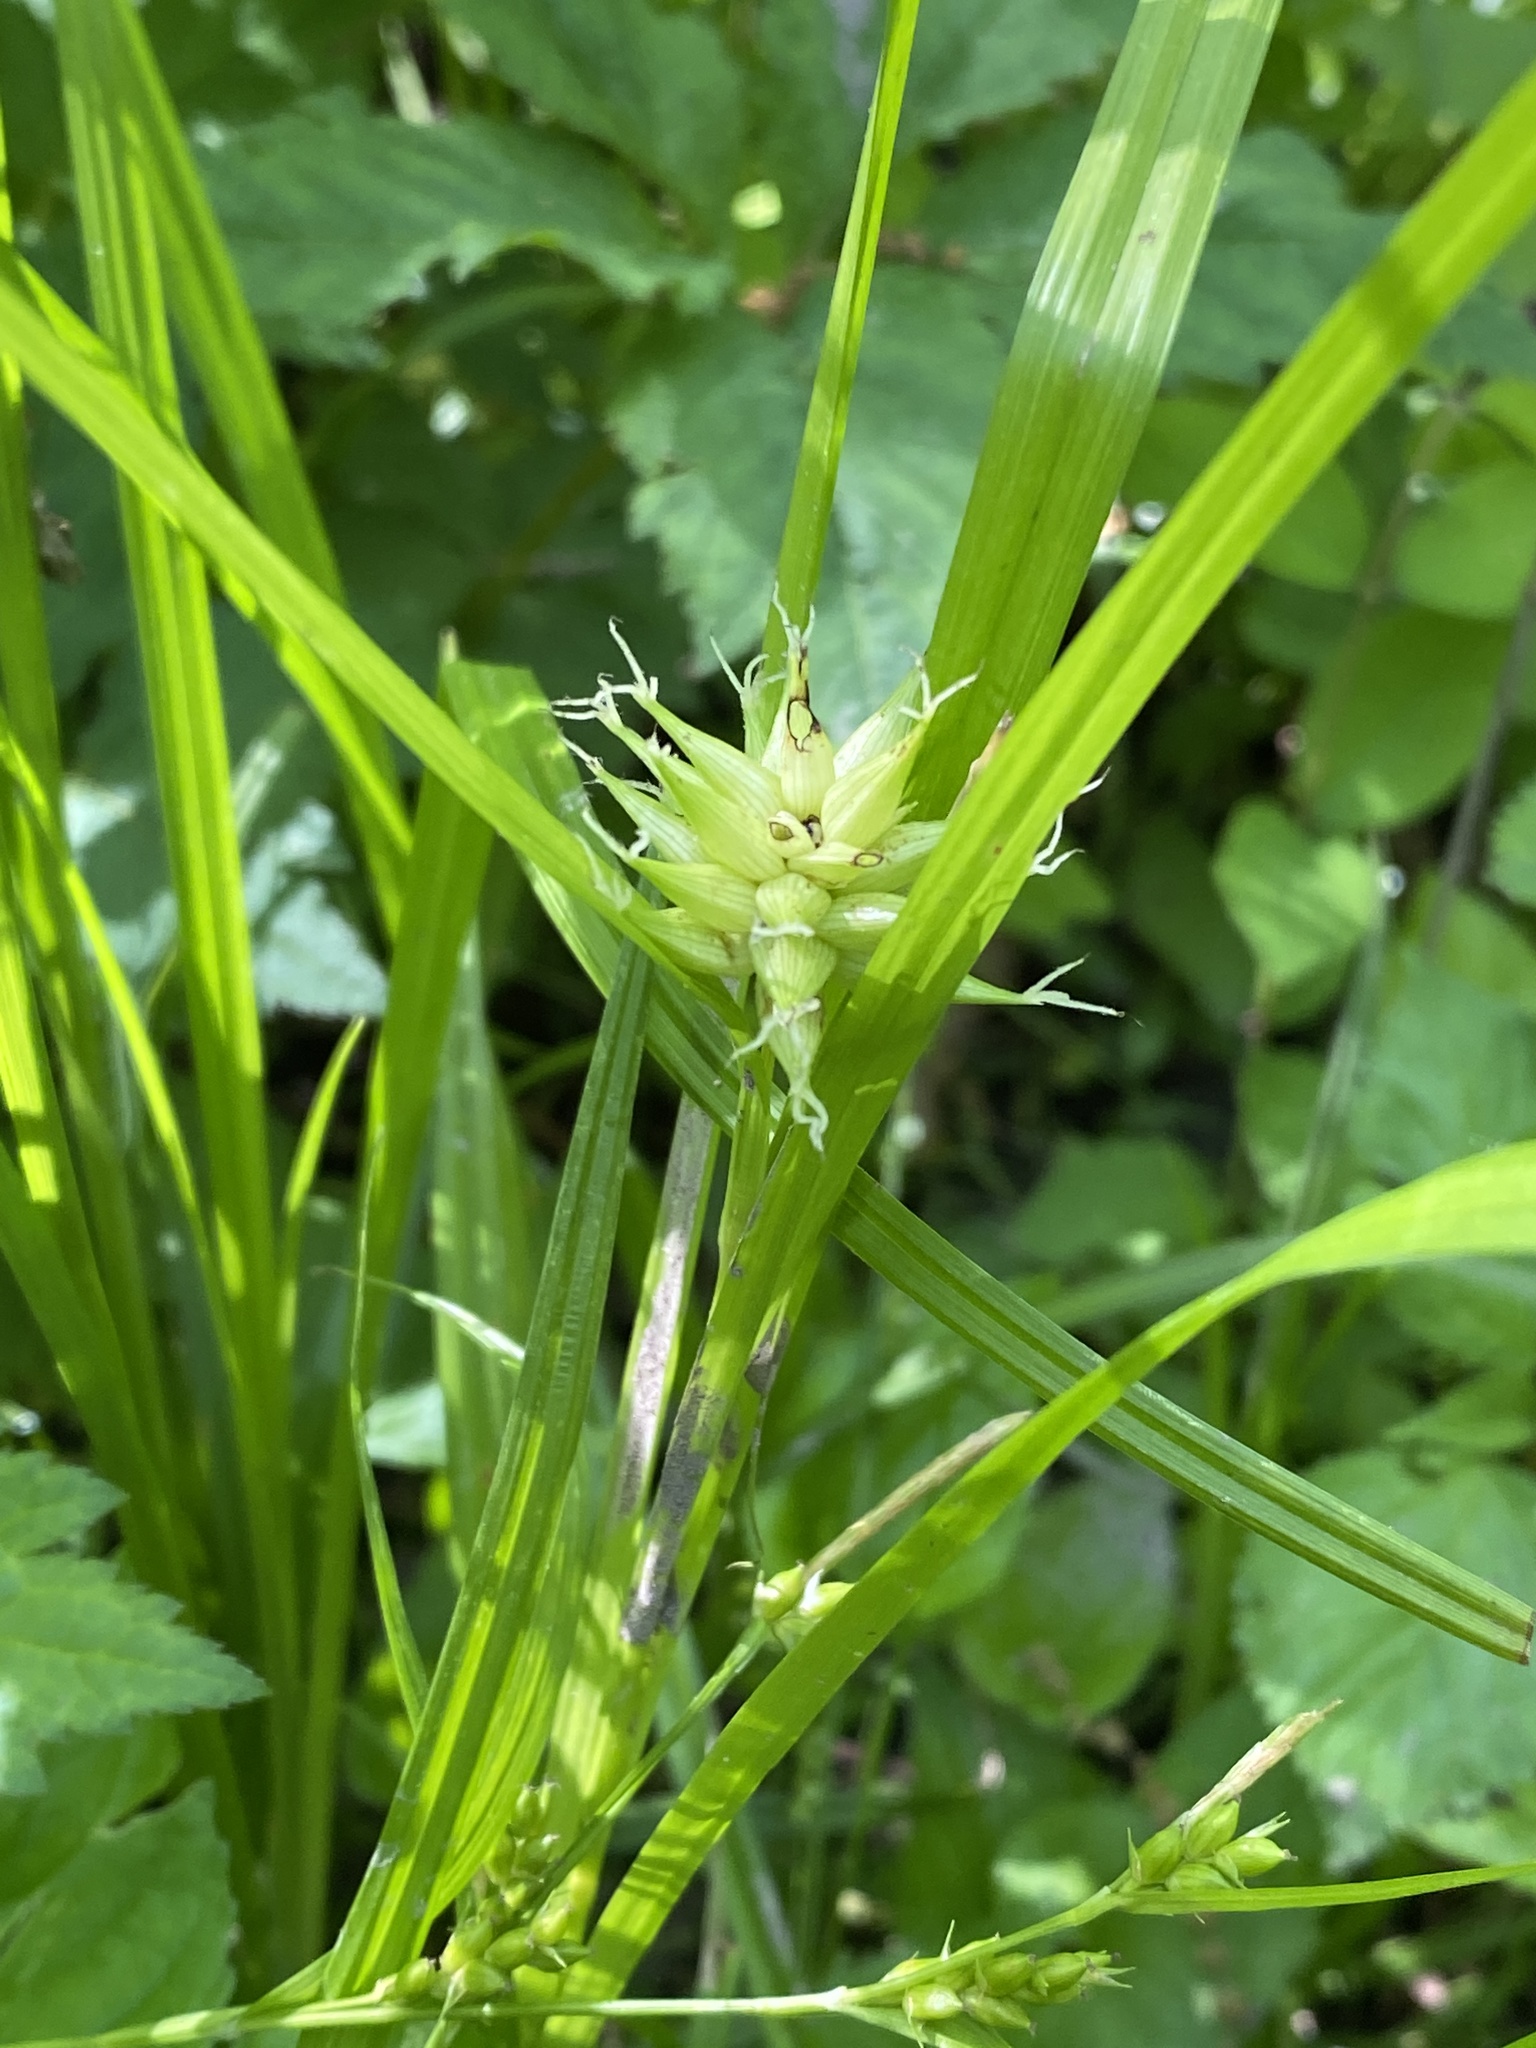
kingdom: Plantae
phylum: Tracheophyta
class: Liliopsida
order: Poales
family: Cyperaceae
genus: Carex
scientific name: Carex grayi
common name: Asa gray's sedge
